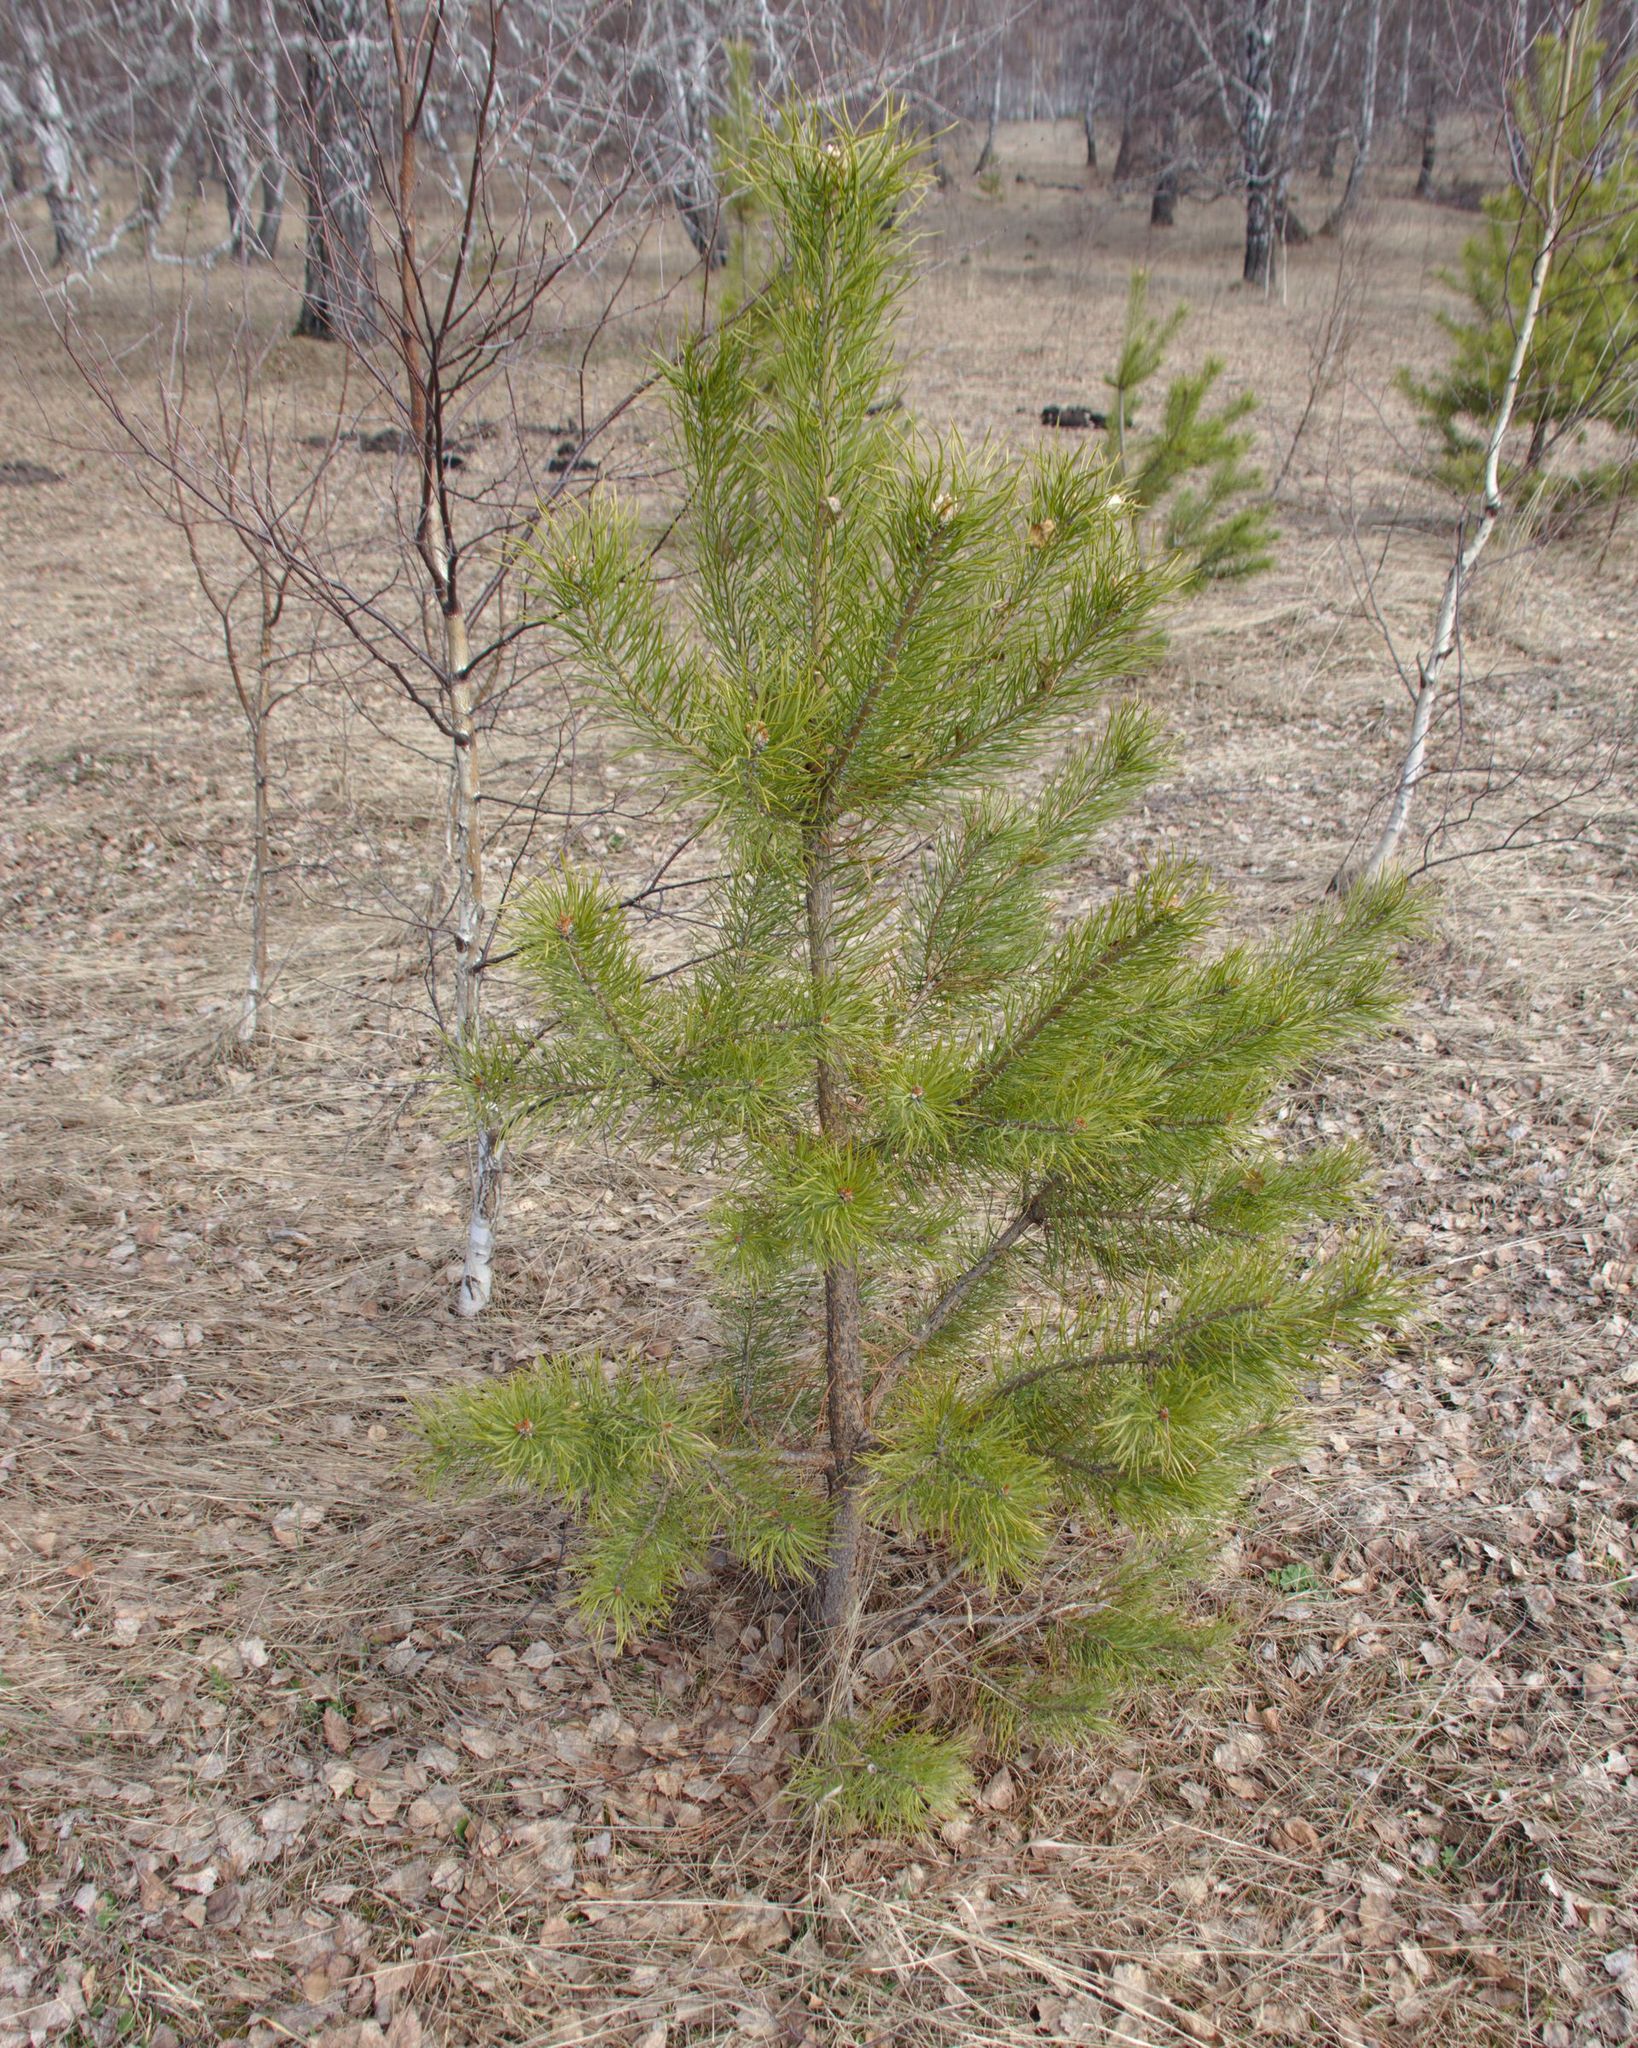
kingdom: Plantae
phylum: Tracheophyta
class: Pinopsida
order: Pinales
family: Pinaceae
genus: Pinus
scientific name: Pinus sylvestris
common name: Scots pine
